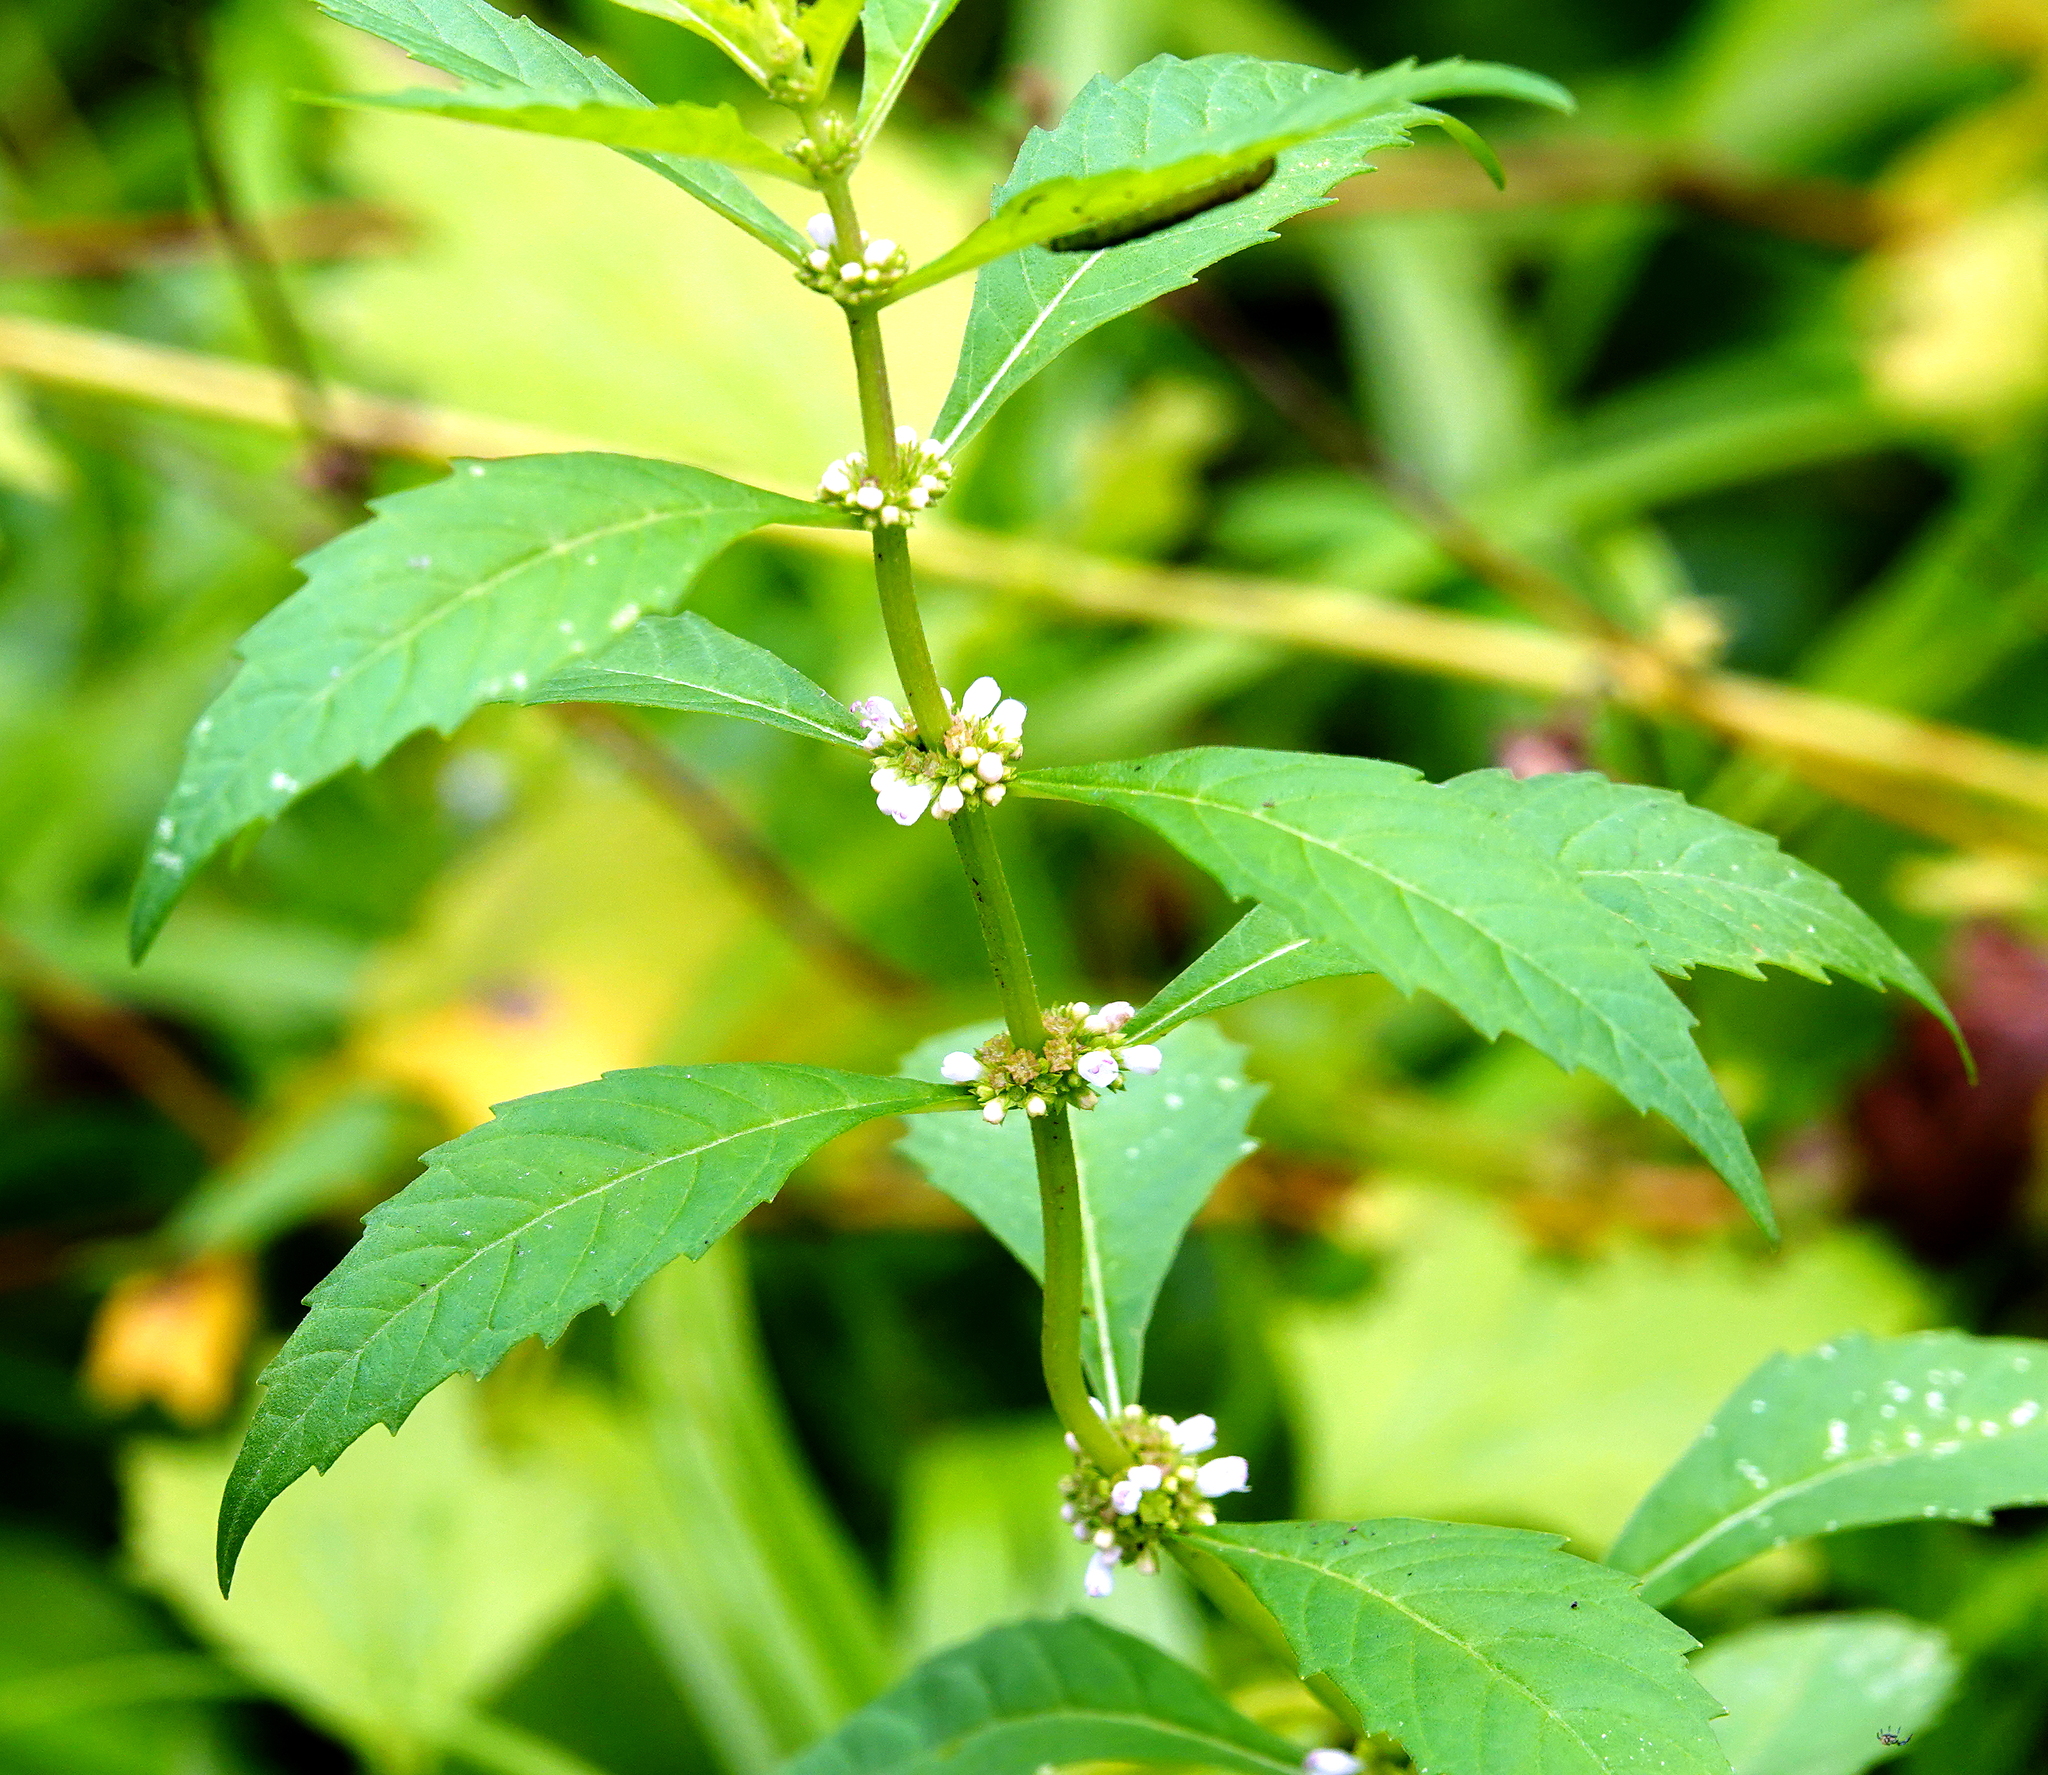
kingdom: Plantae
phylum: Tracheophyta
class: Magnoliopsida
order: Lamiales
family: Lamiaceae
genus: Lycopus
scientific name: Lycopus uniflorus
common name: Northern bugleweed
